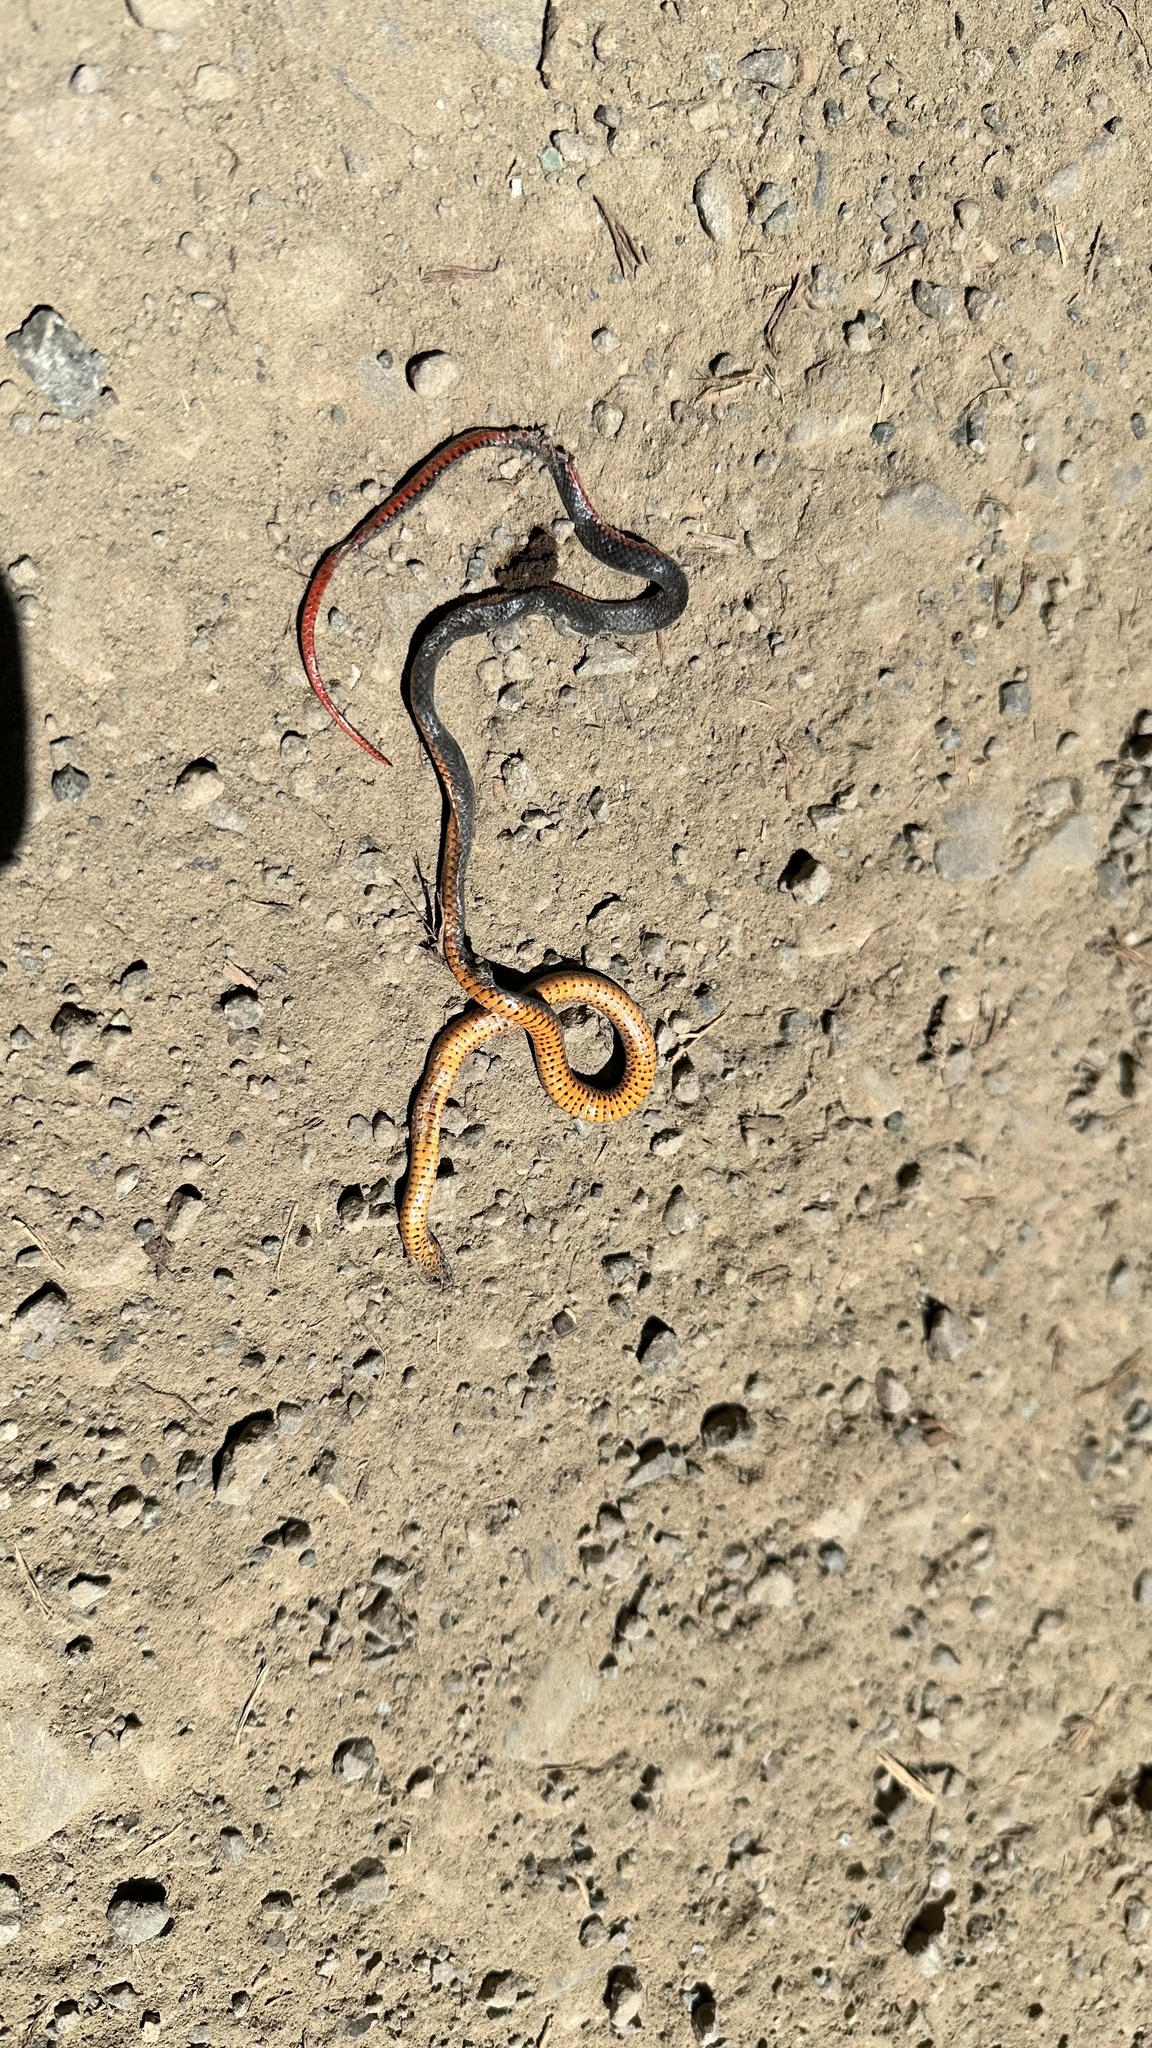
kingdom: Animalia
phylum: Chordata
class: Squamata
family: Colubridae
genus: Diadophis
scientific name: Diadophis punctatus
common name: Ringneck snake
